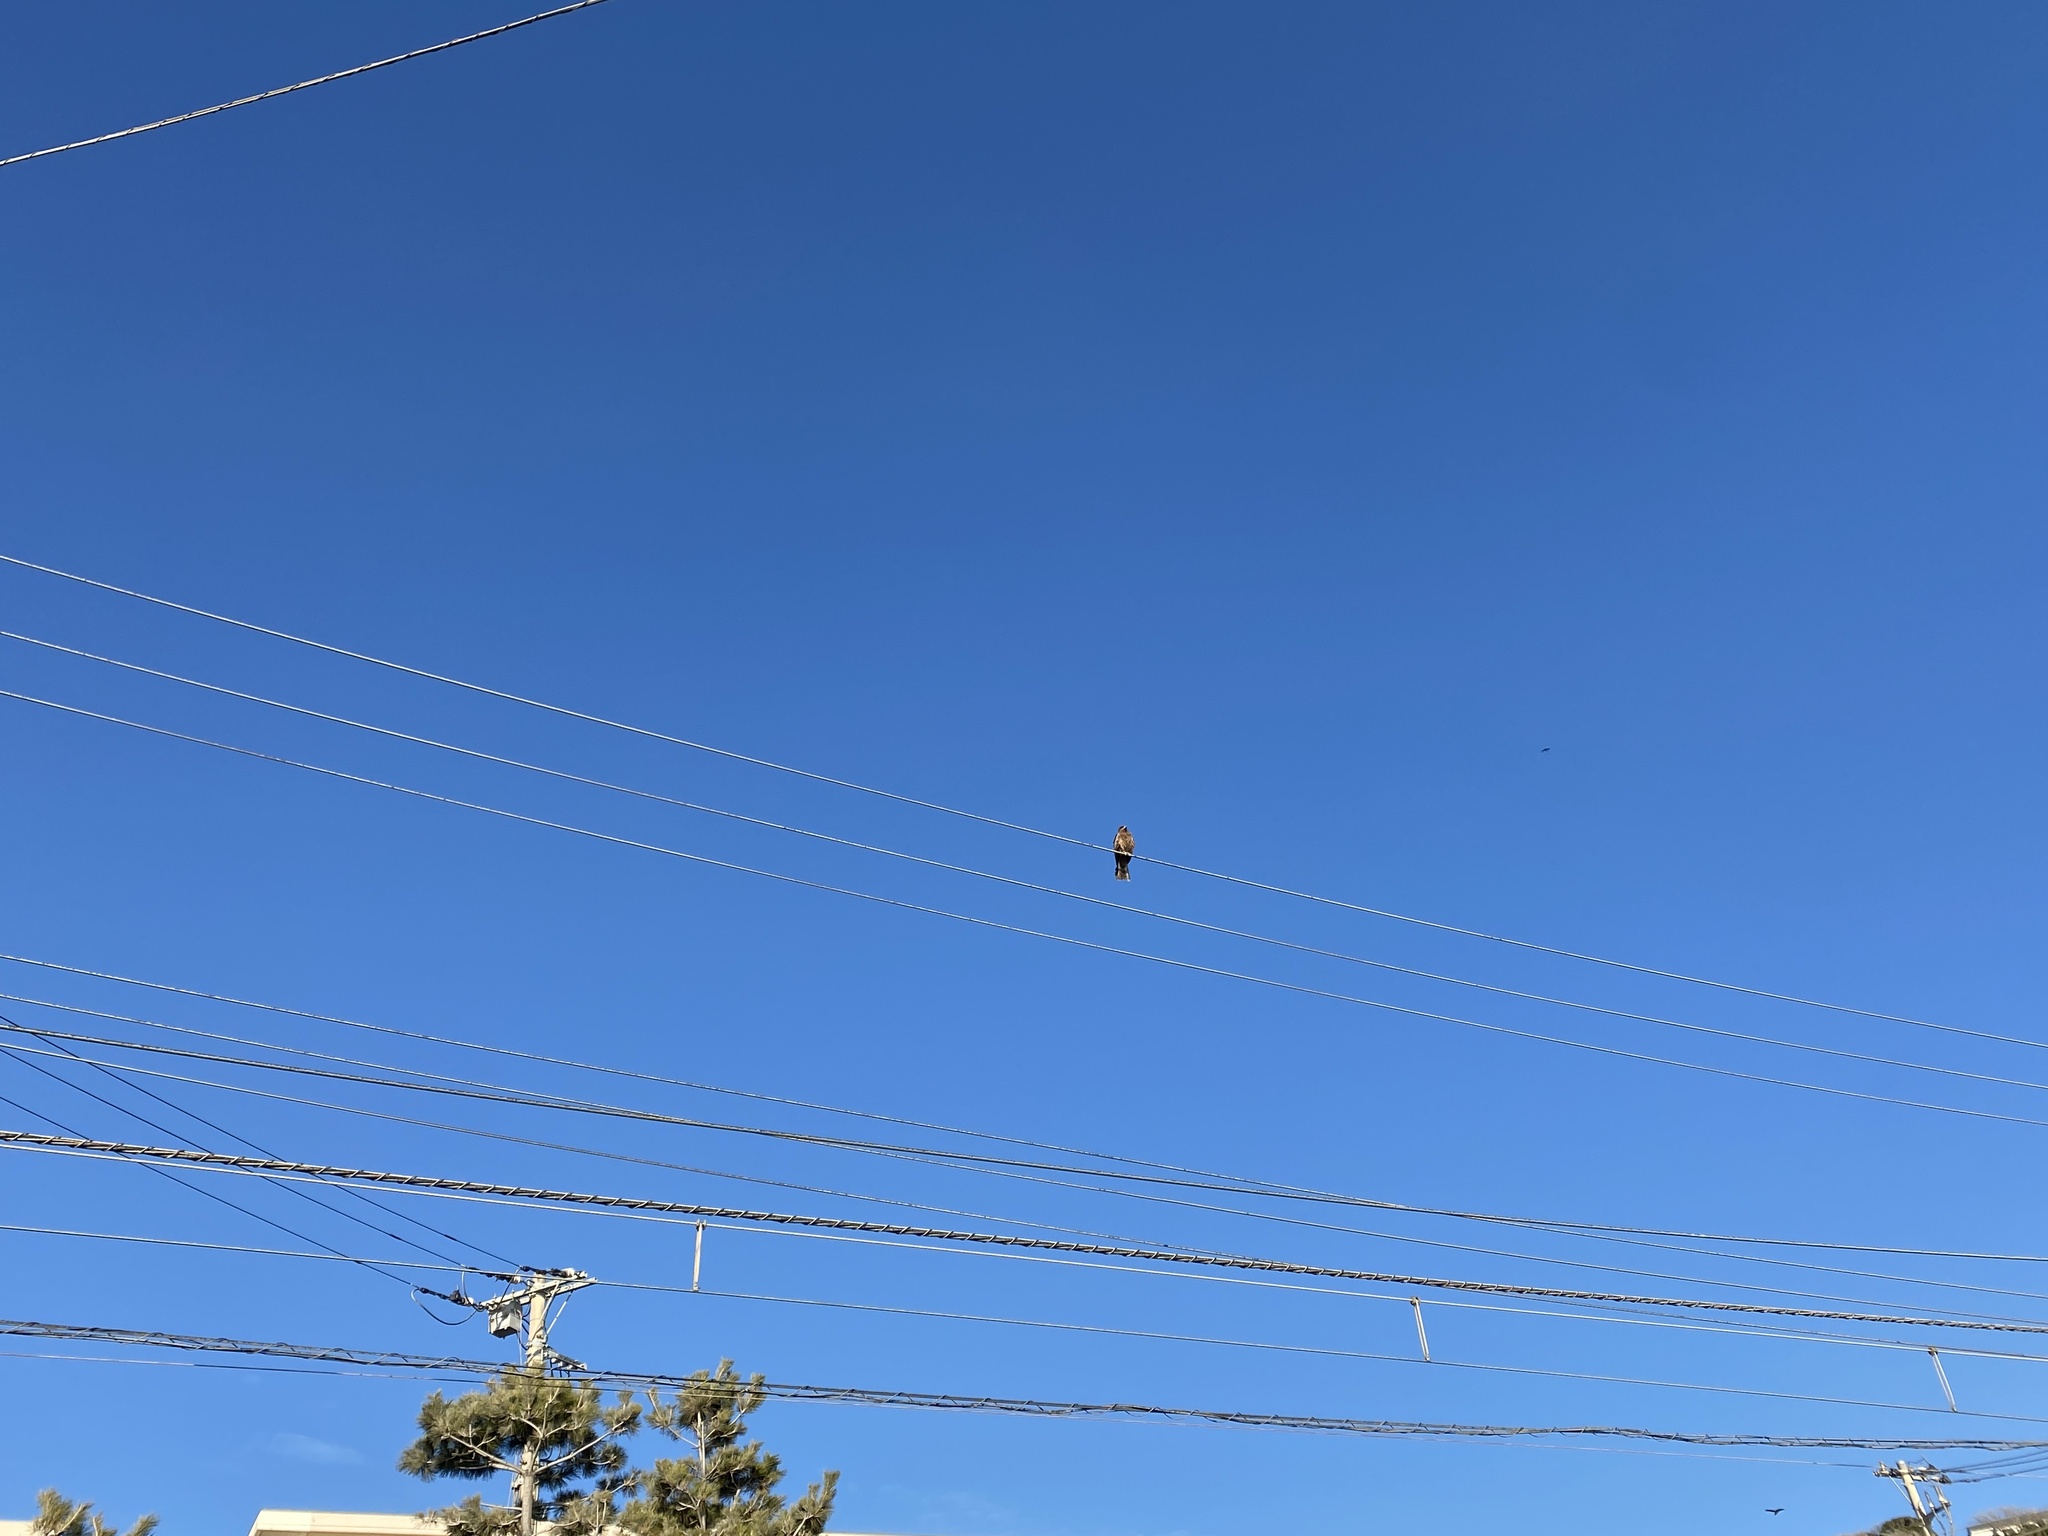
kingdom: Animalia
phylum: Chordata
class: Aves
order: Accipitriformes
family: Accipitridae
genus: Milvus
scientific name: Milvus migrans
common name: Black kite
